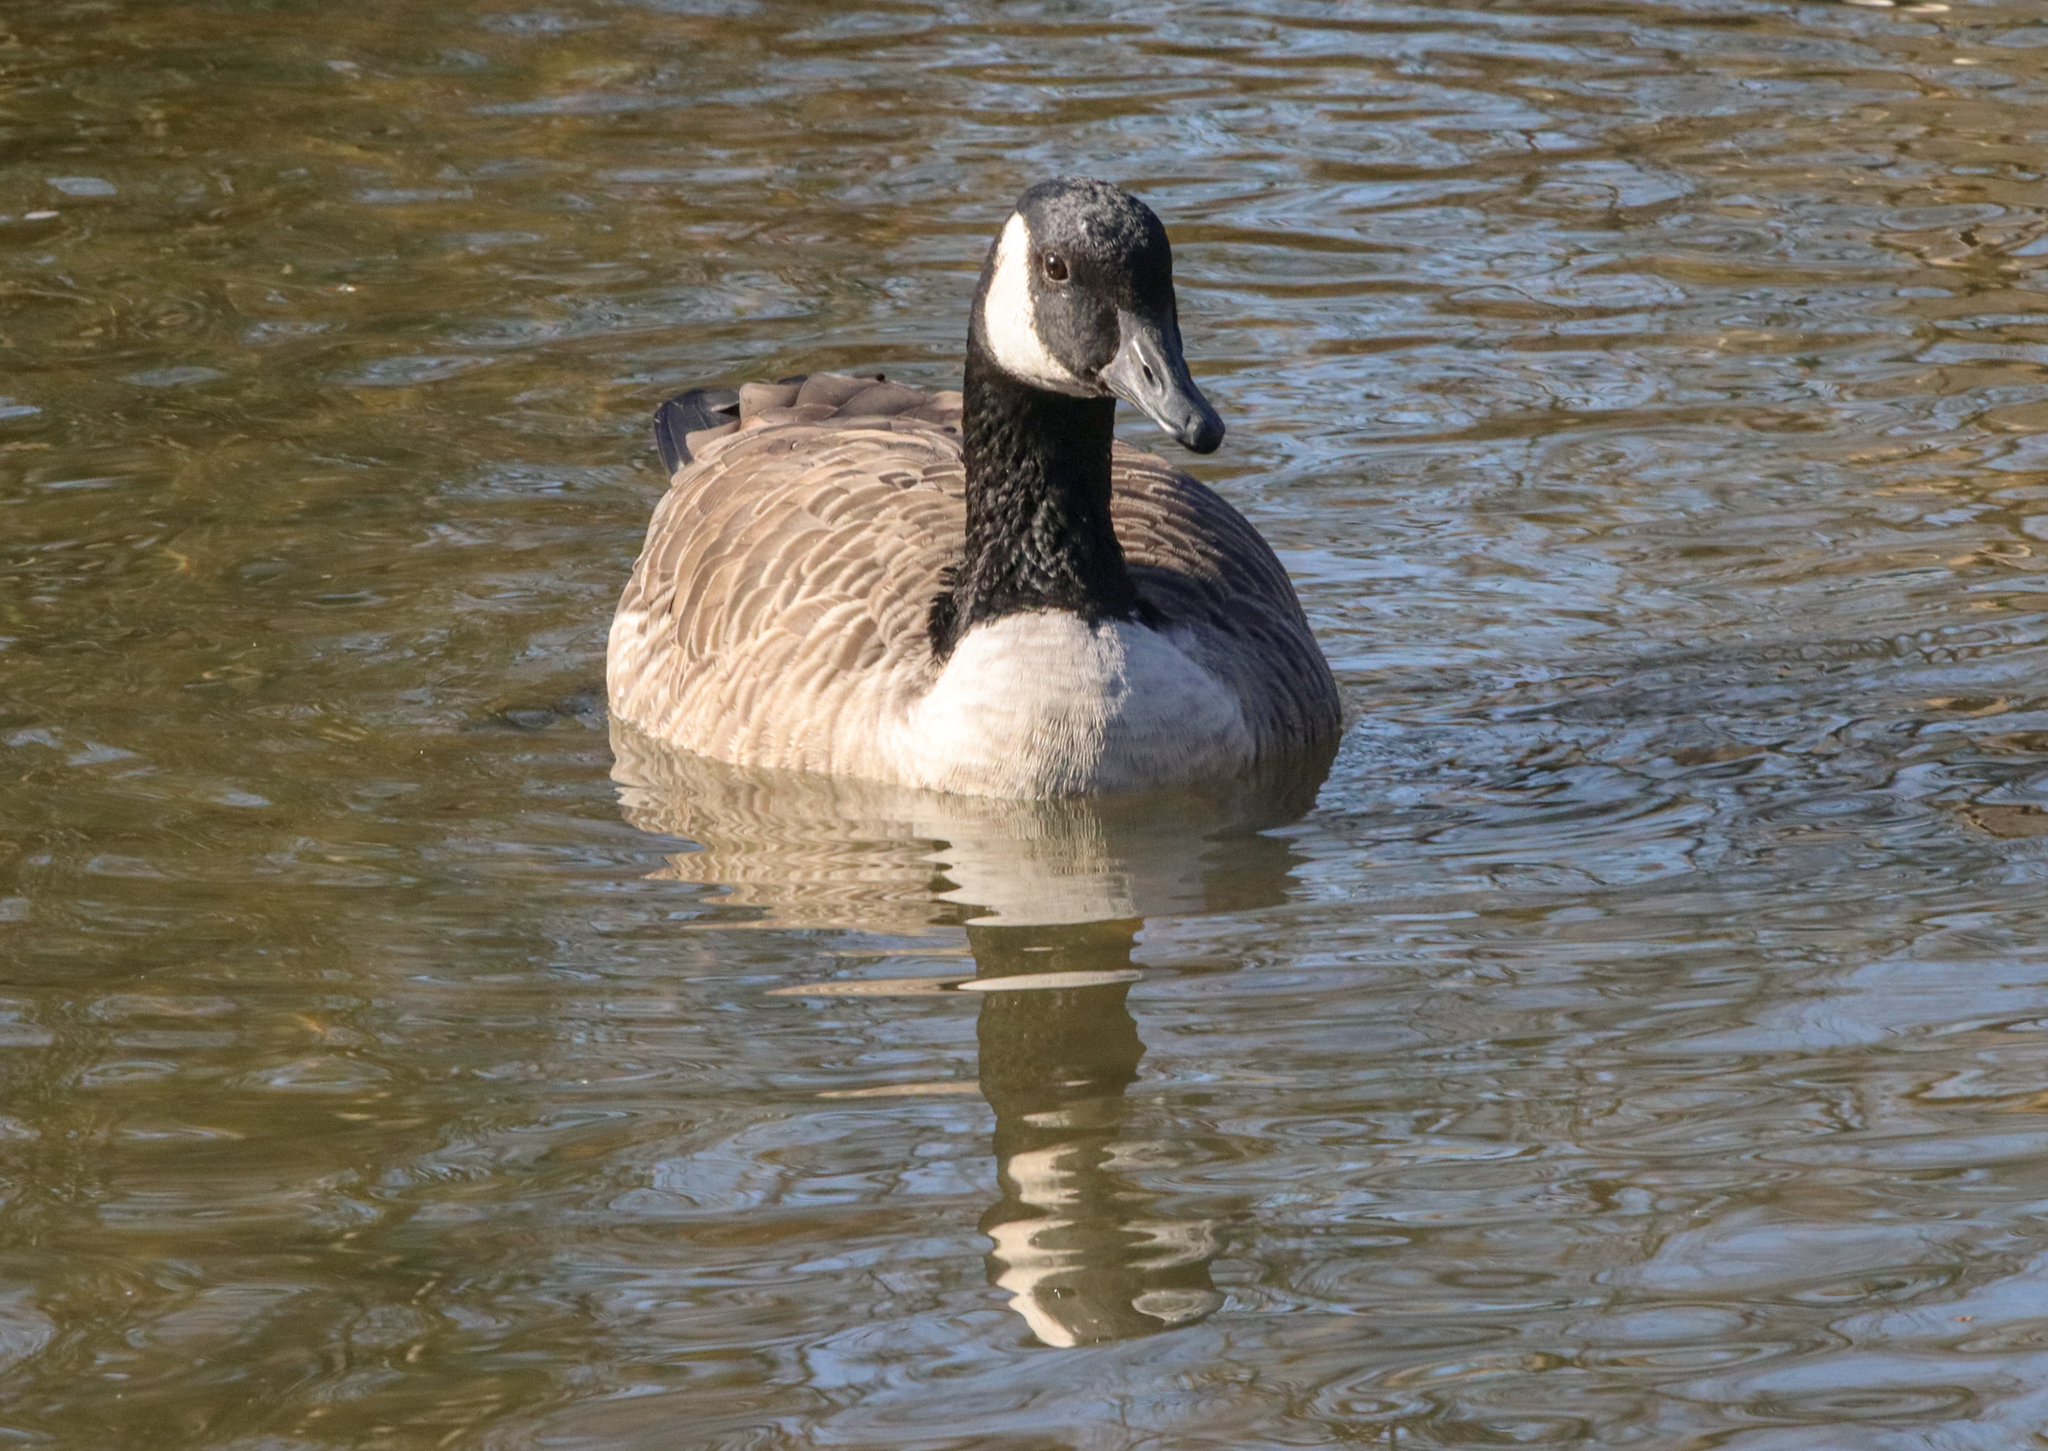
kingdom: Animalia
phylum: Chordata
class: Aves
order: Anseriformes
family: Anatidae
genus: Branta
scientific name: Branta canadensis
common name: Canada goose
